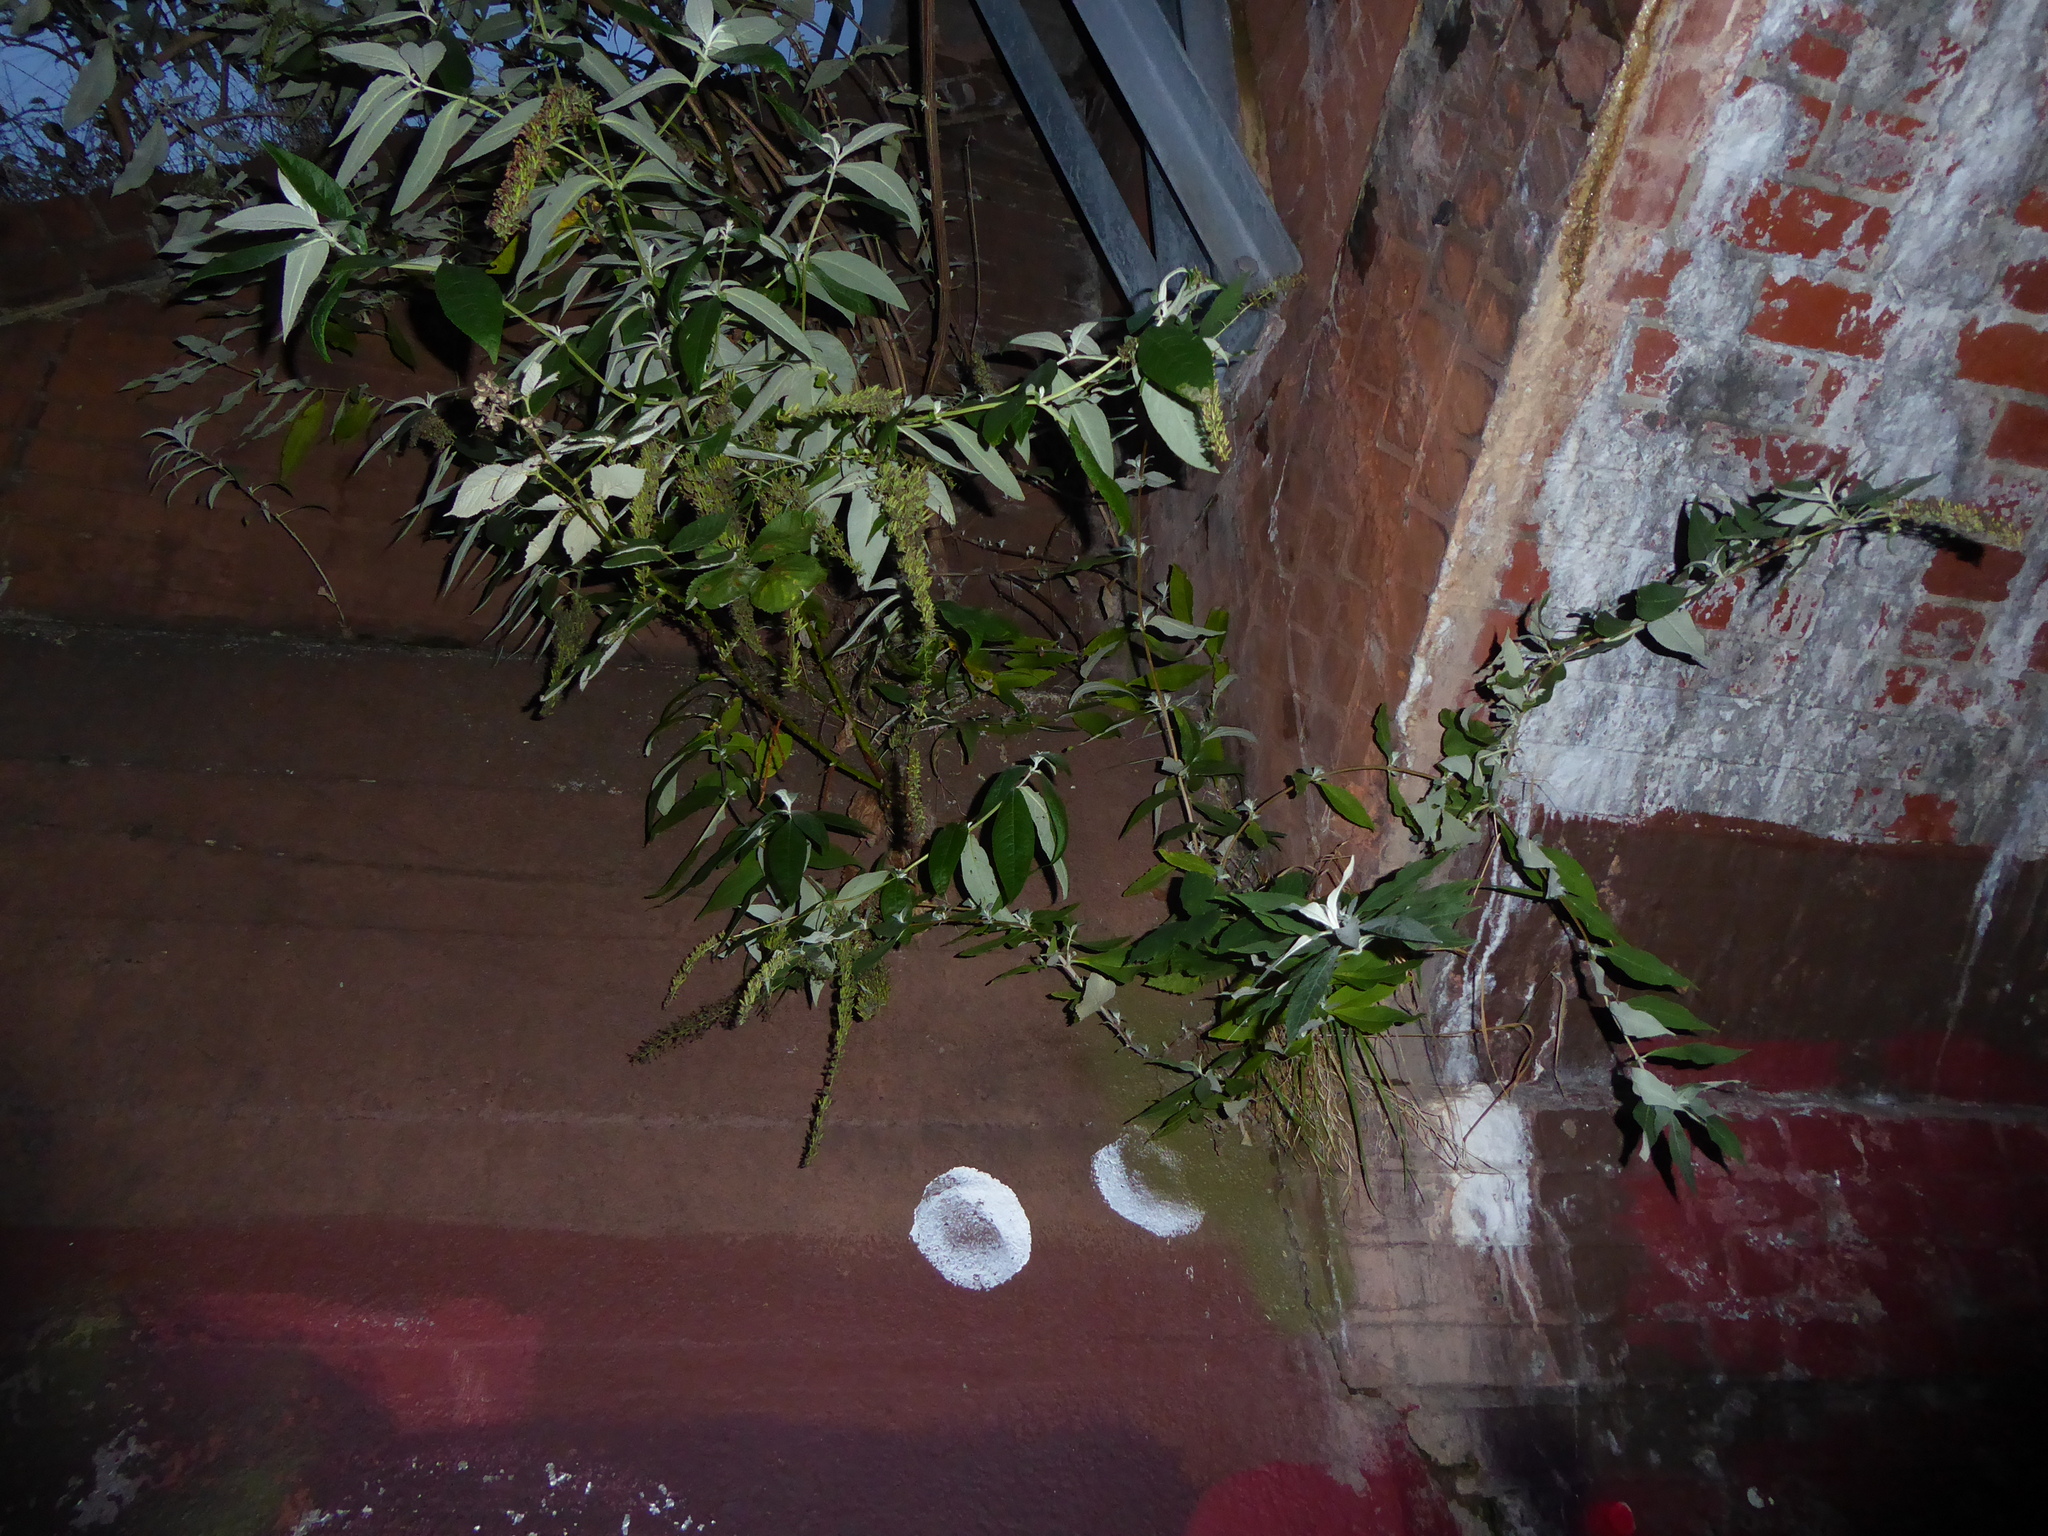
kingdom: Plantae
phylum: Tracheophyta
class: Magnoliopsida
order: Lamiales
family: Scrophulariaceae
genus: Buddleja
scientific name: Buddleja davidii
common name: Butterfly-bush
